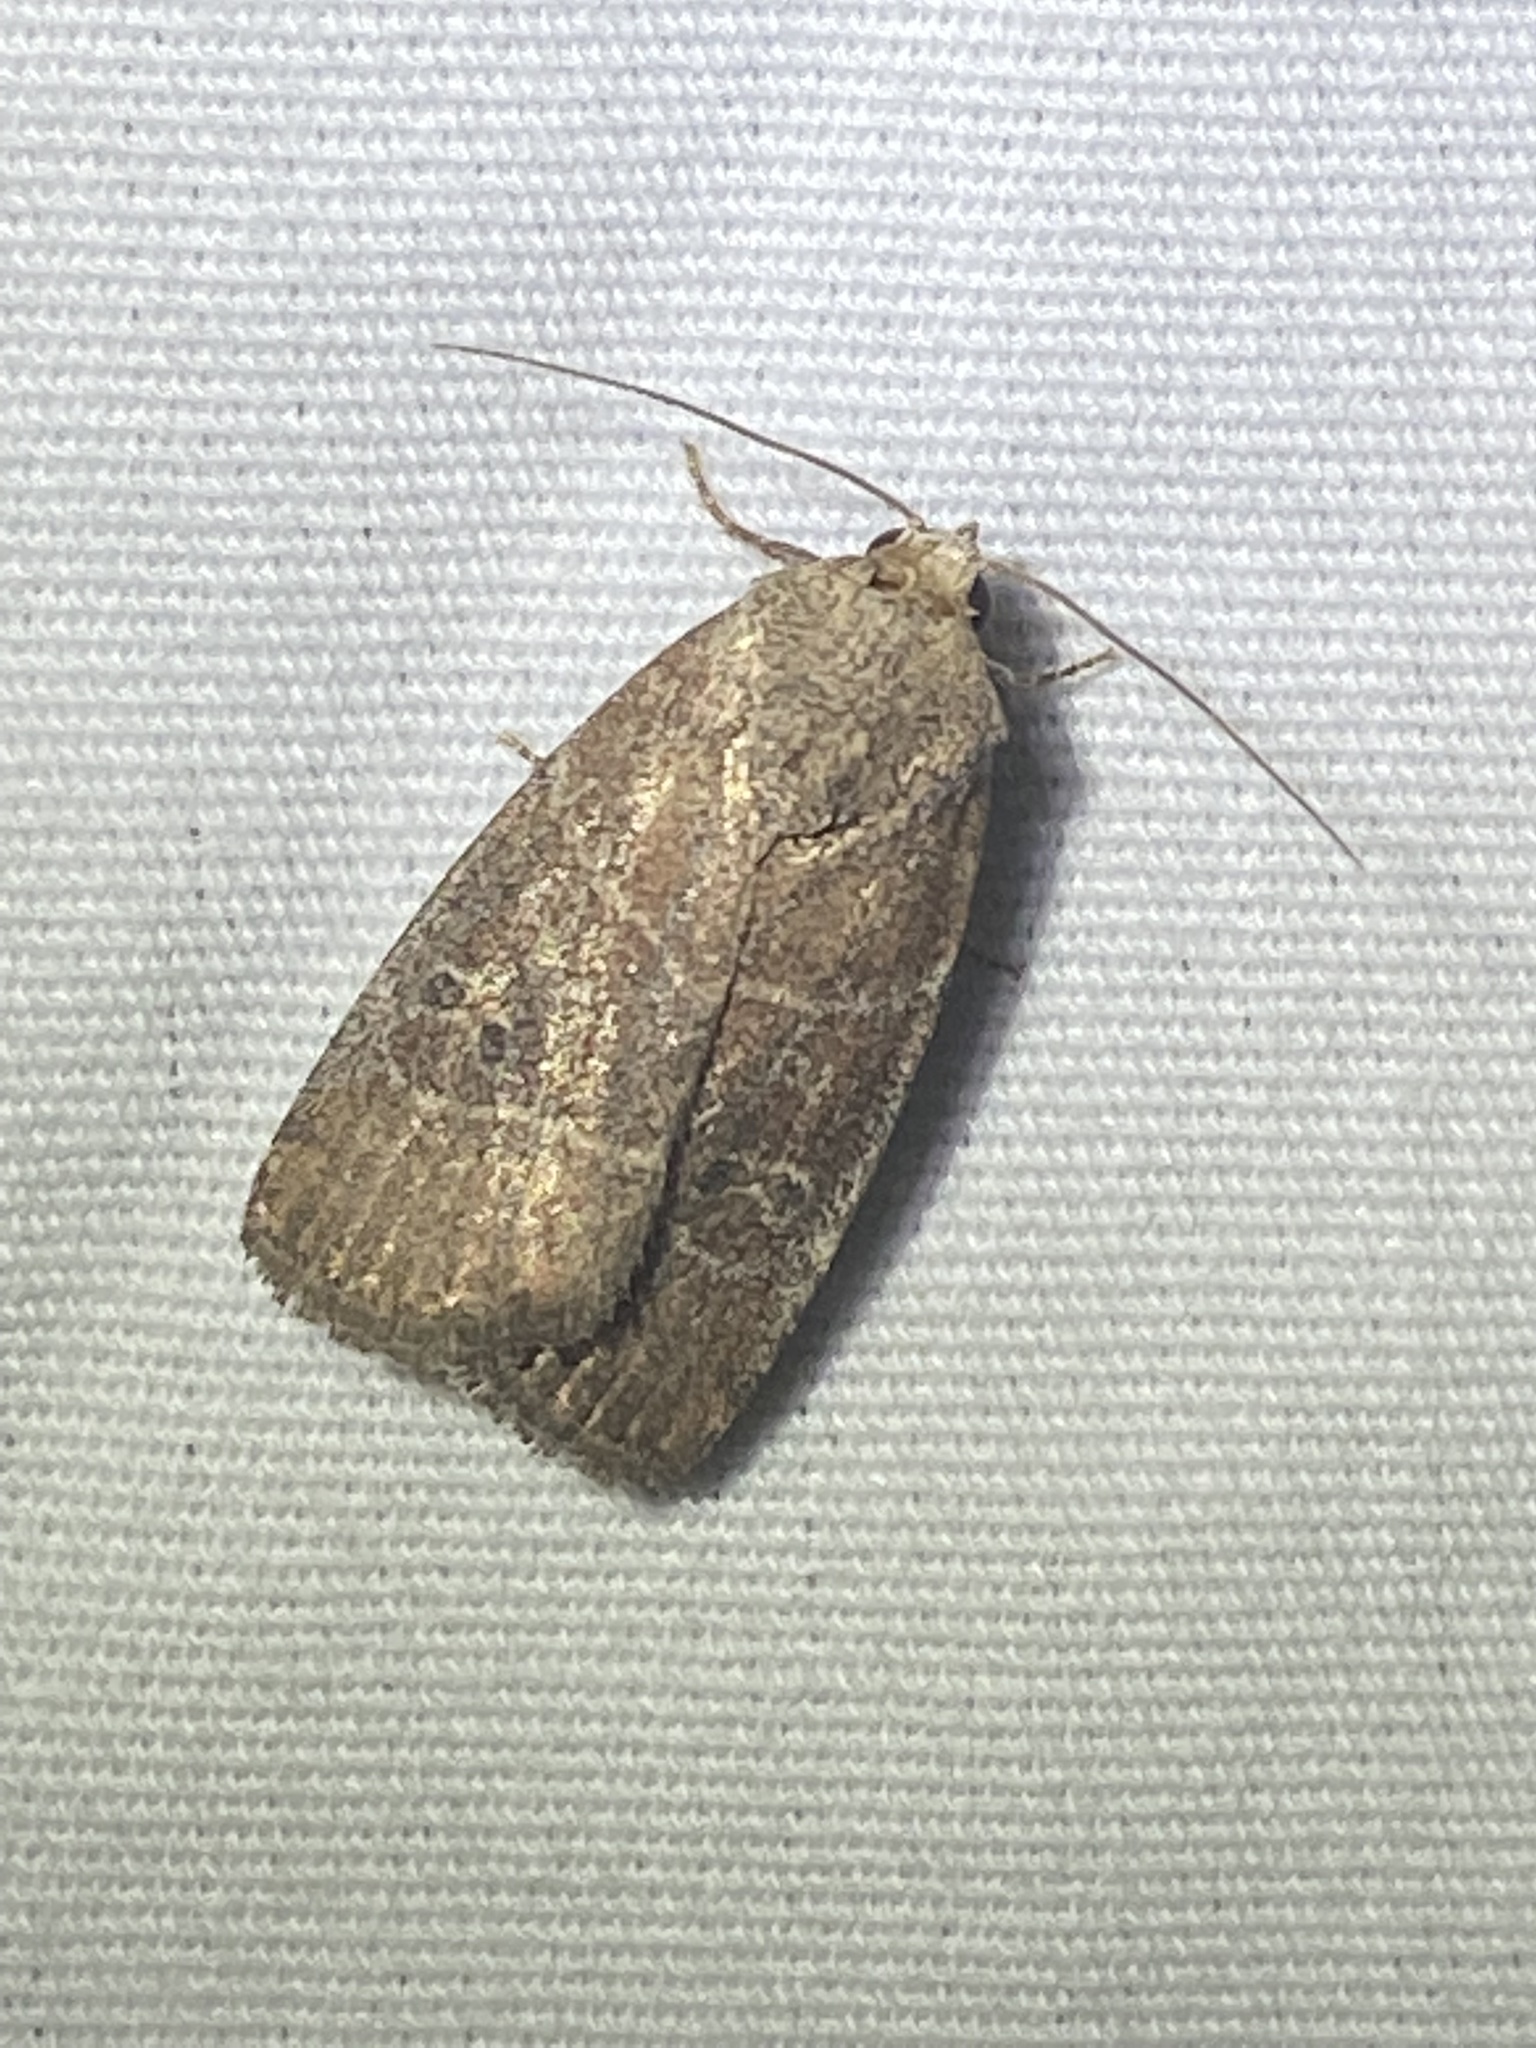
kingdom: Animalia
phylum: Arthropoda
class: Insecta
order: Lepidoptera
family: Noctuidae
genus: Elaphria
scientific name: Elaphria grata
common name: Grateful midget moth
